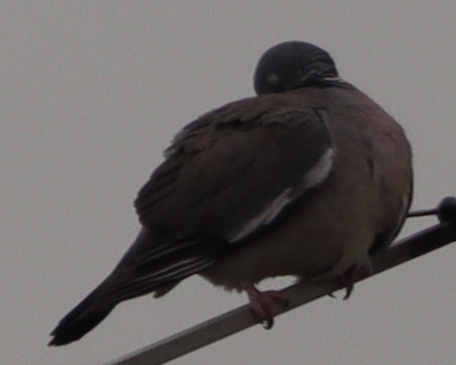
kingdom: Animalia
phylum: Chordata
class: Aves
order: Columbiformes
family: Columbidae
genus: Columba
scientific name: Columba palumbus
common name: Common wood pigeon
